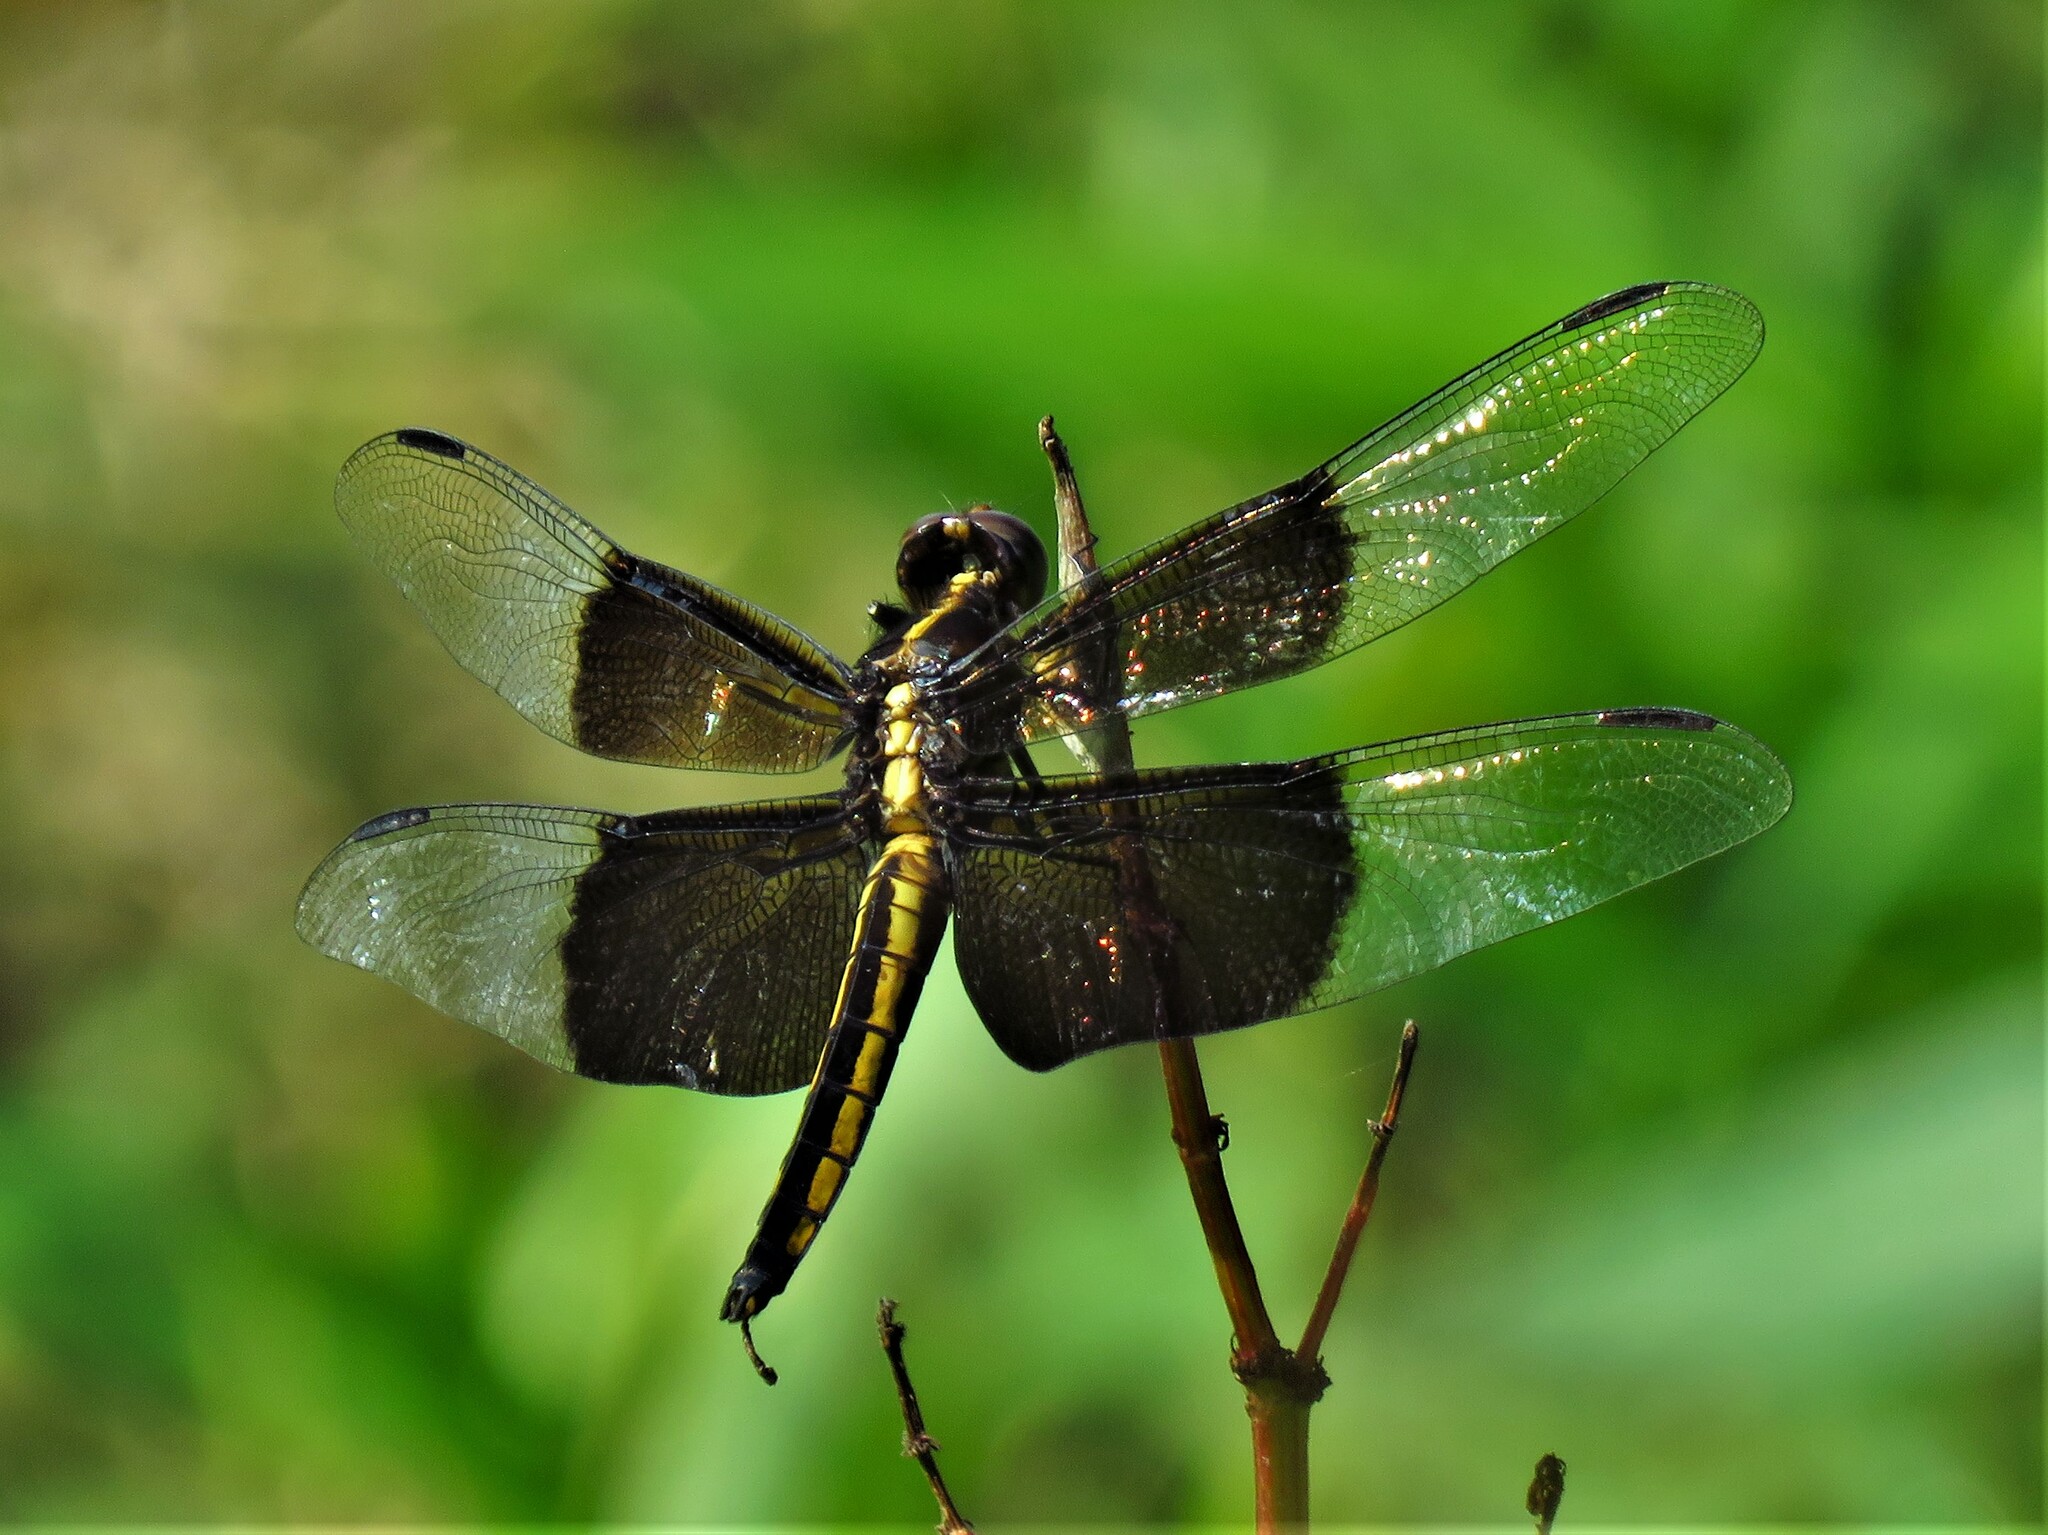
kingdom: Animalia
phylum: Arthropoda
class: Insecta
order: Odonata
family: Libellulidae
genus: Libellula
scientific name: Libellula luctuosa
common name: Widow skimmer
